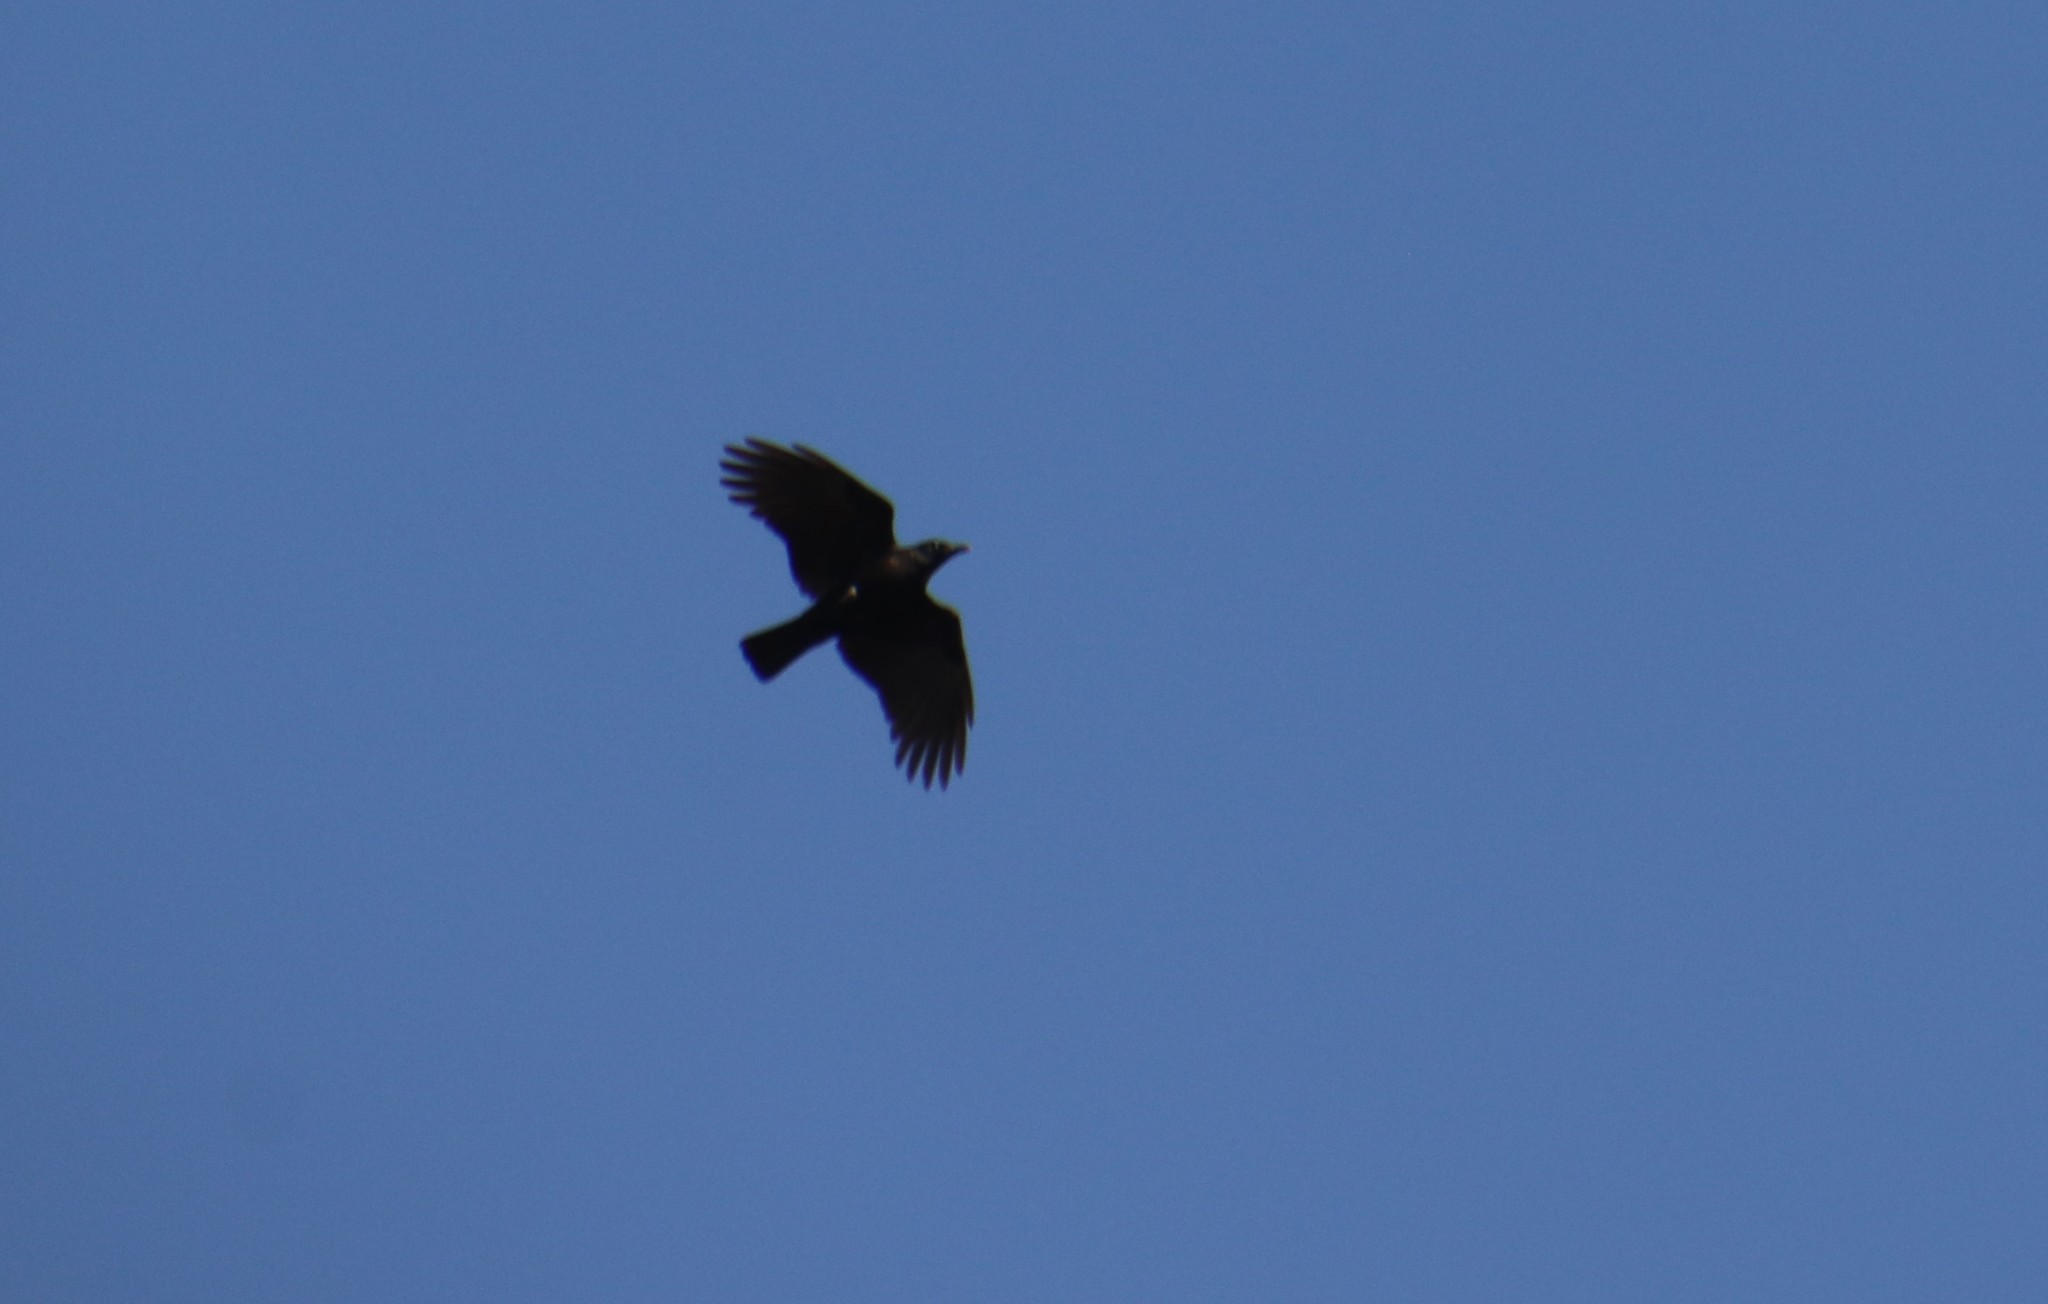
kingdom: Animalia
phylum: Chordata
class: Aves
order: Passeriformes
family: Corvidae
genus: Corvus
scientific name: Corvus brachyrhynchos
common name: American crow
